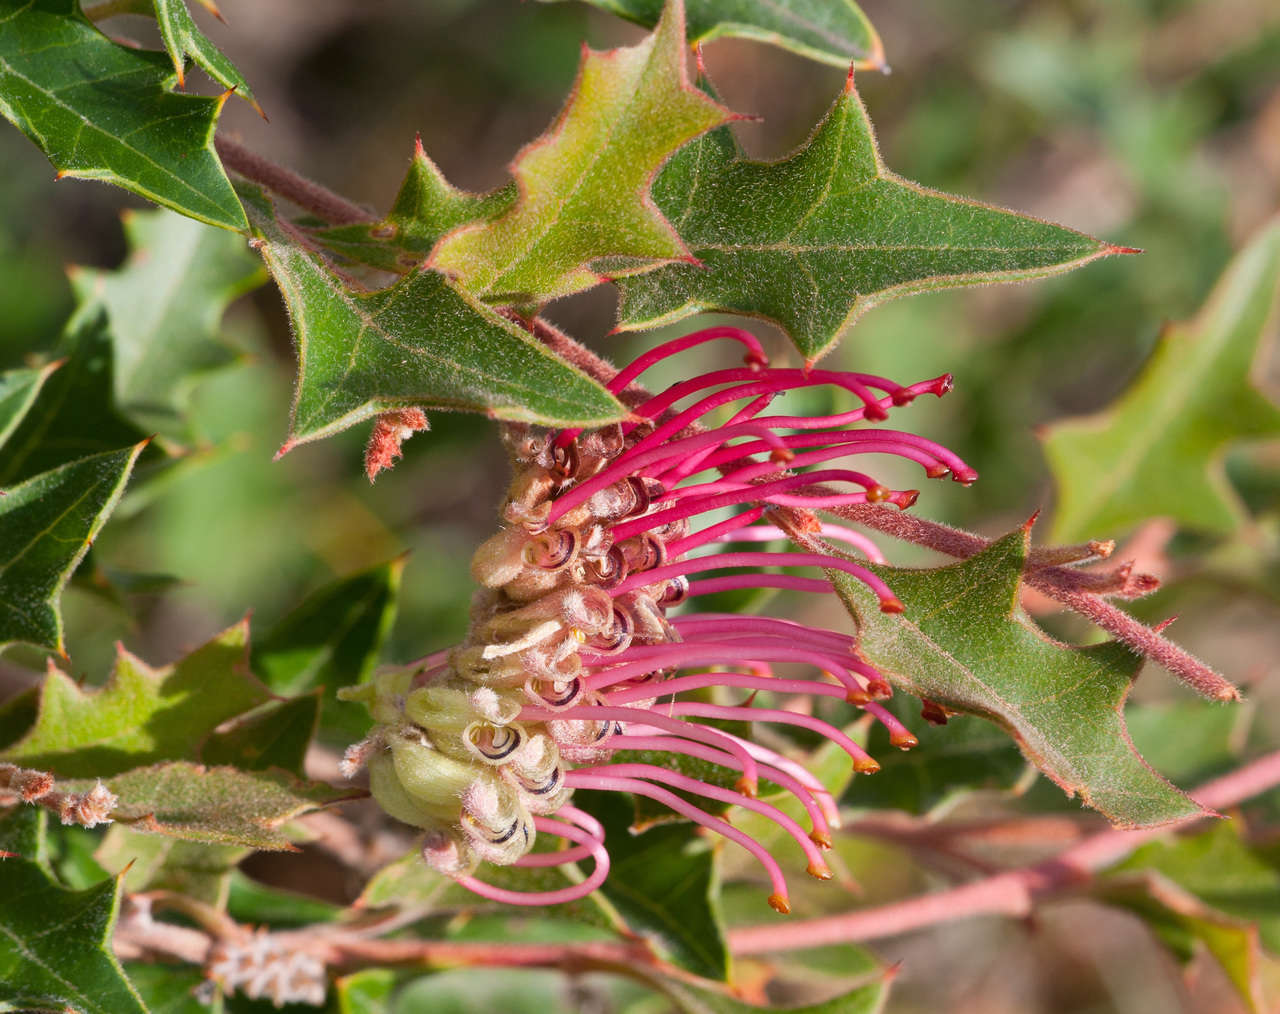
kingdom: Plantae
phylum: Tracheophyta
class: Magnoliopsida
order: Proteales
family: Proteaceae
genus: Grevillea
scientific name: Grevillea aquifolium
